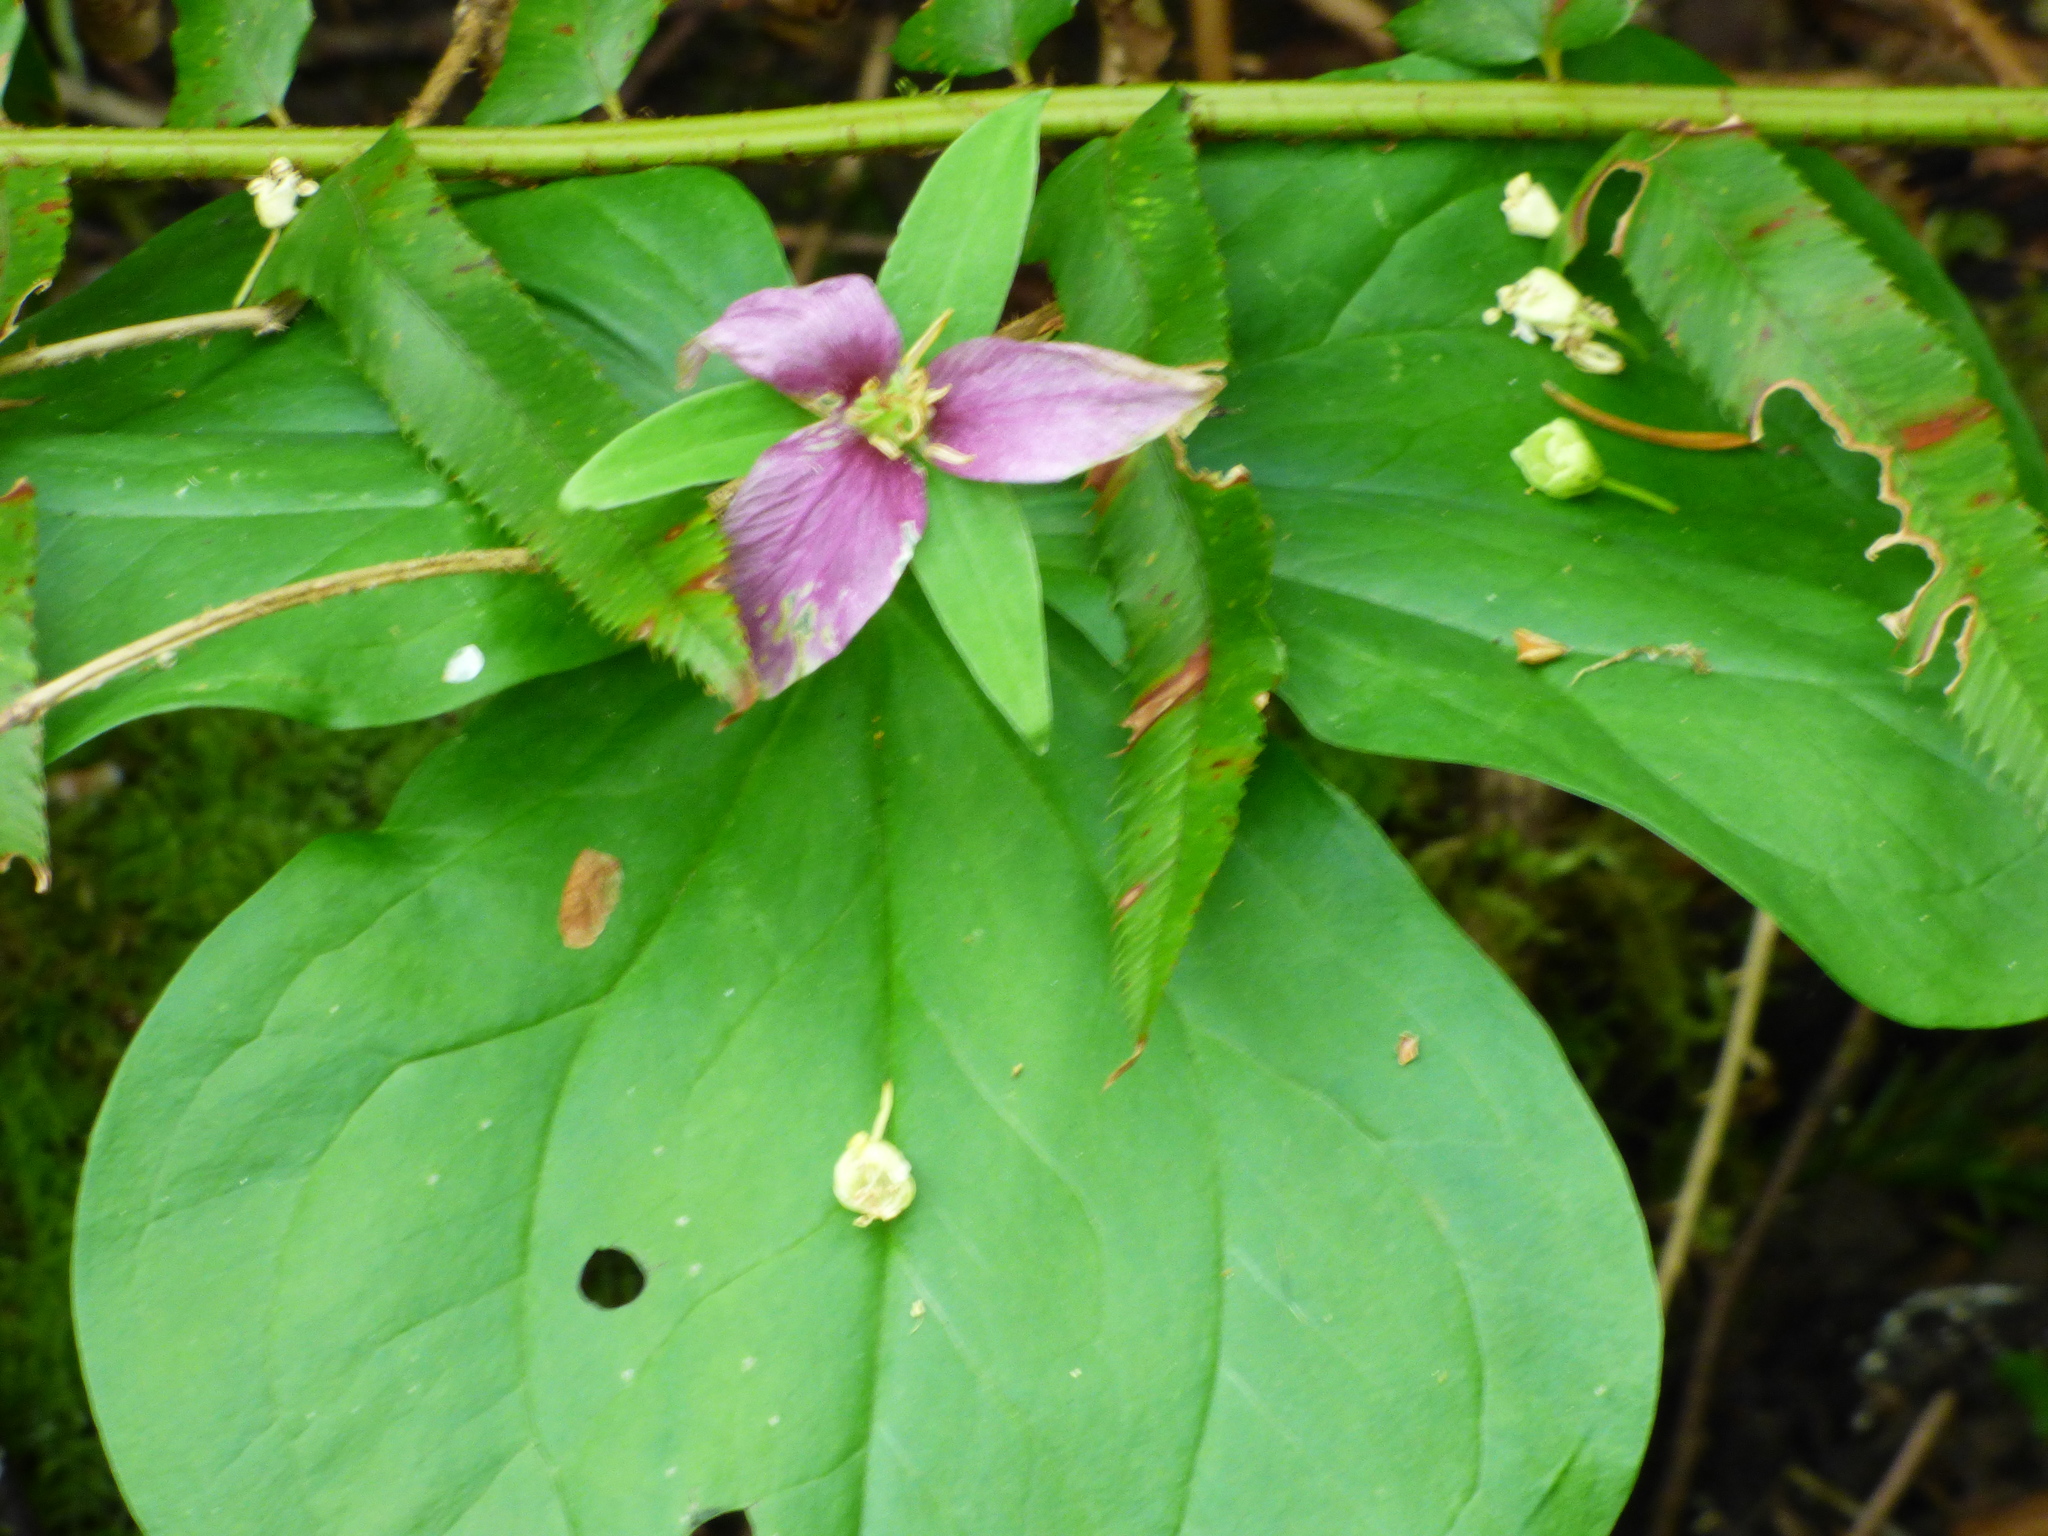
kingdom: Plantae
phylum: Tracheophyta
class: Liliopsida
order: Liliales
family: Melanthiaceae
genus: Trillium
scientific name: Trillium ovatum
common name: Pacific trillium
